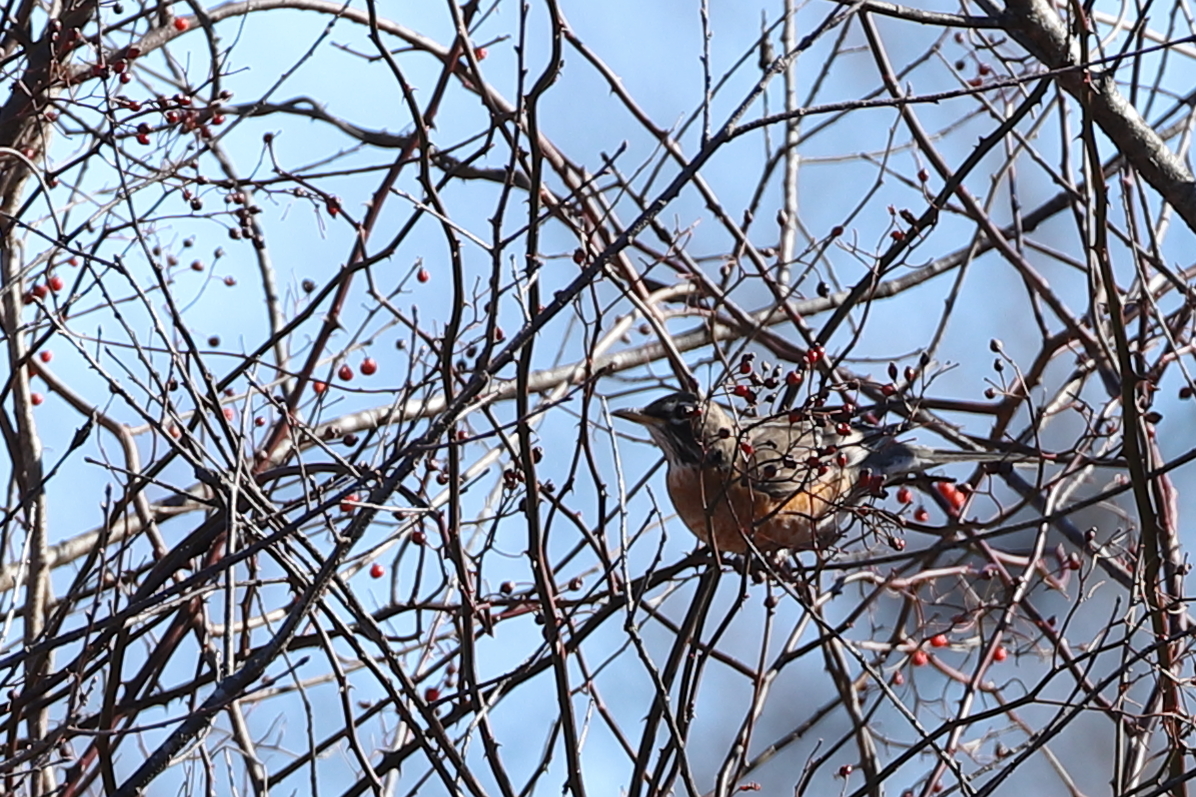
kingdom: Animalia
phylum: Chordata
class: Aves
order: Passeriformes
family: Turdidae
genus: Turdus
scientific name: Turdus migratorius
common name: American robin
